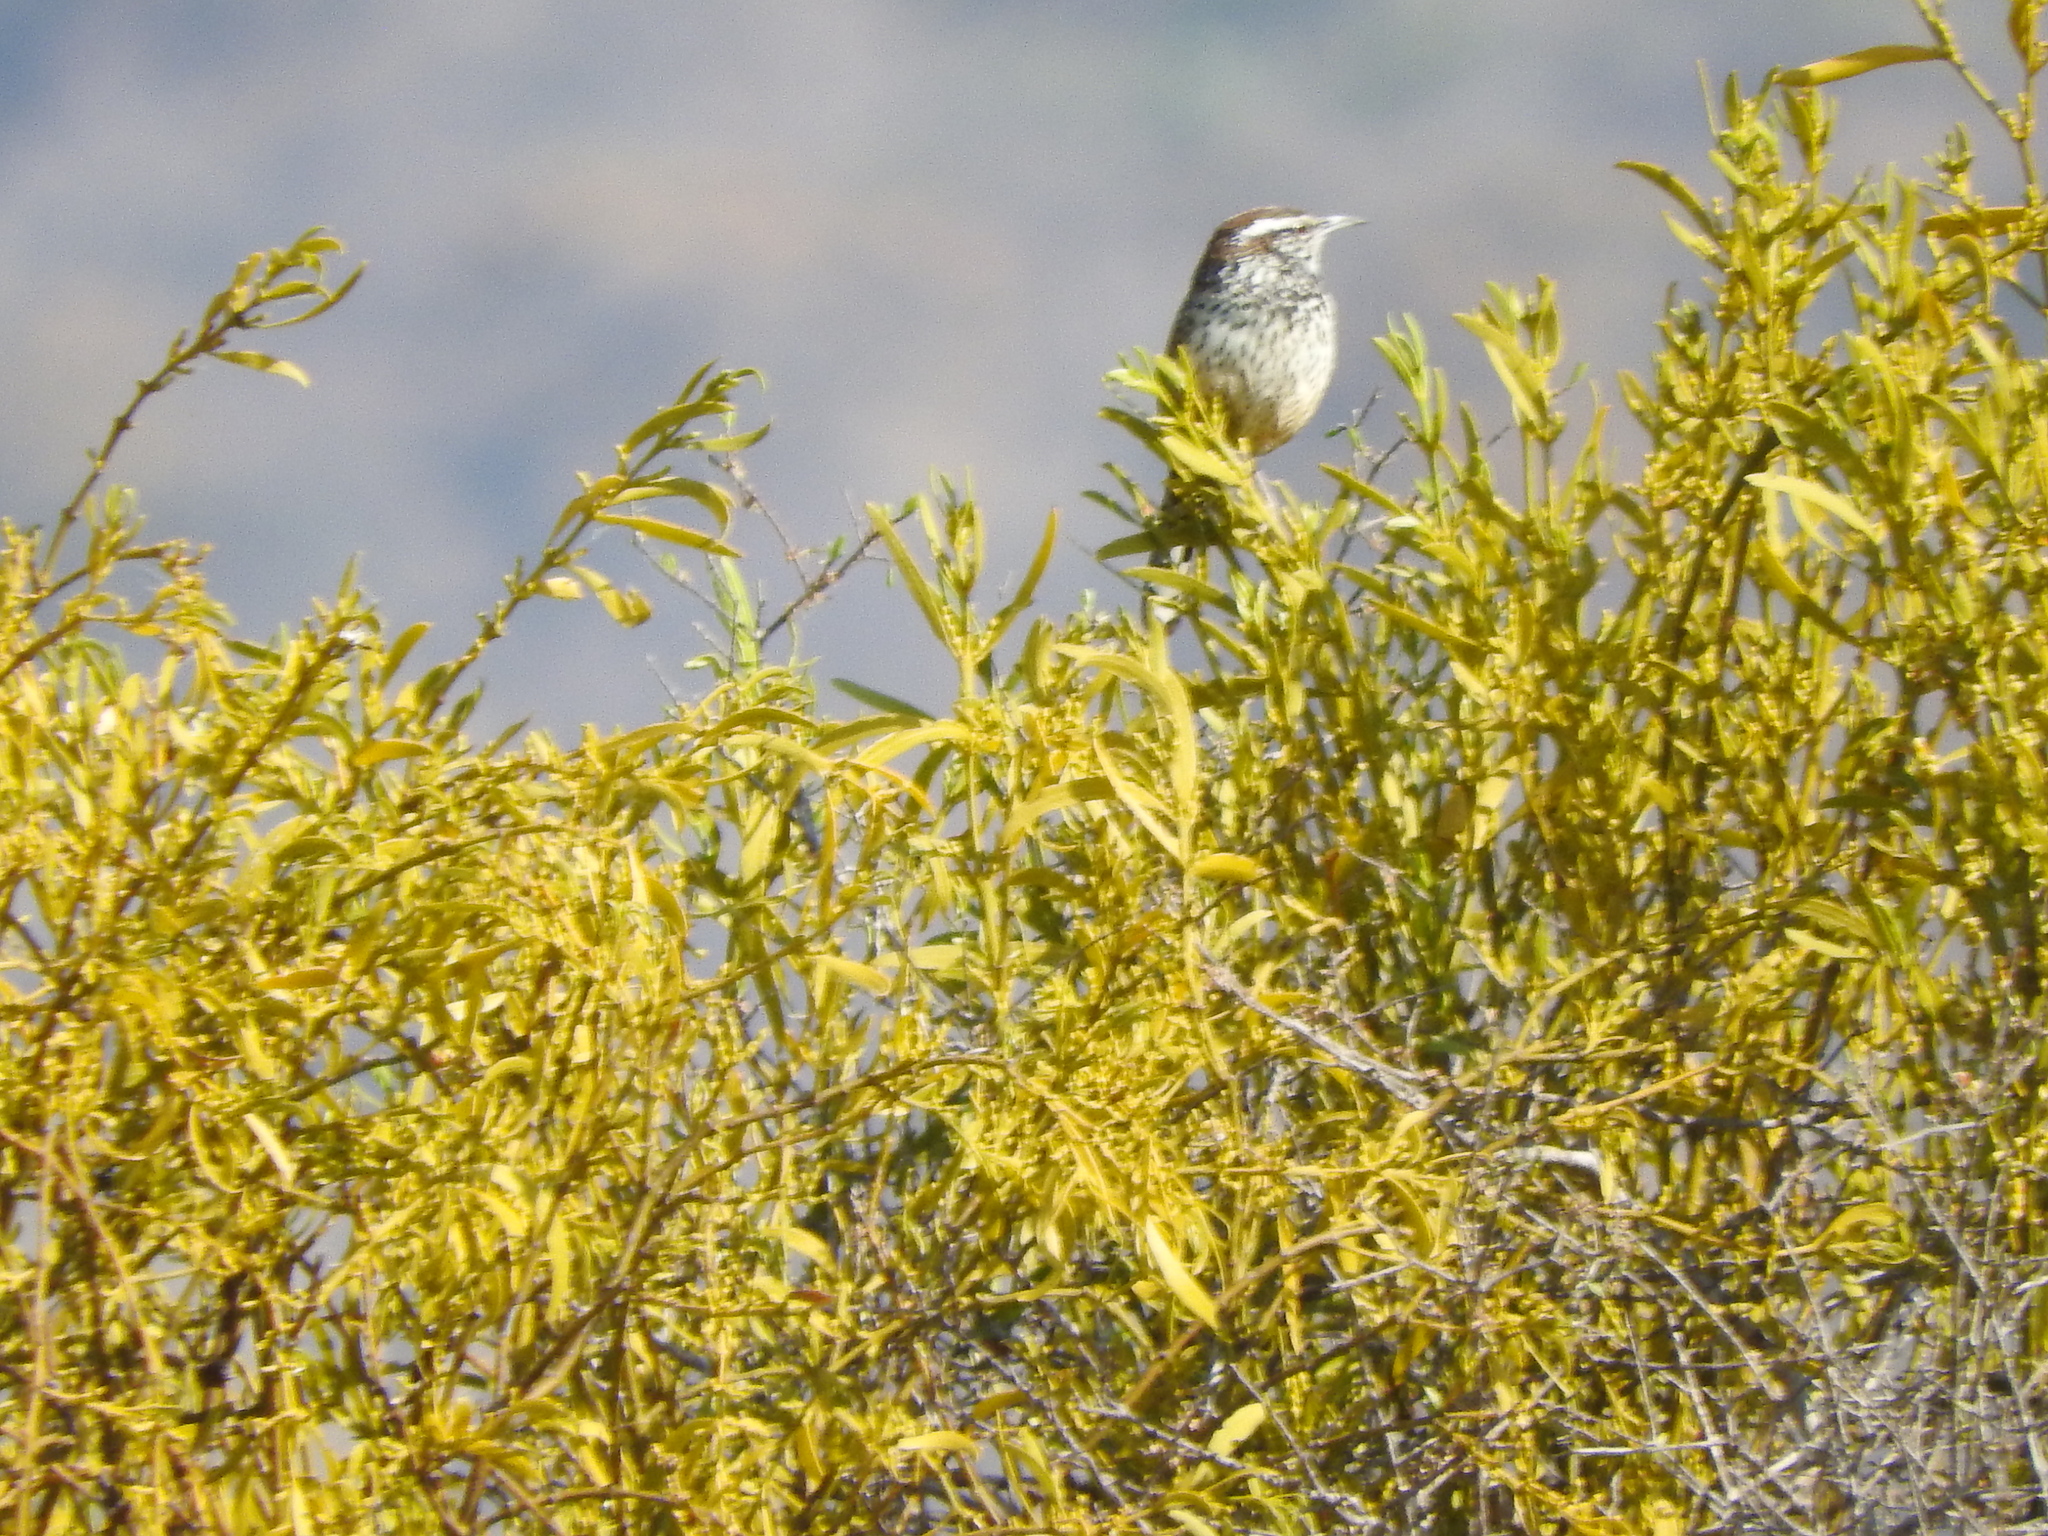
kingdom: Animalia
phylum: Chordata
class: Aves
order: Passeriformes
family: Troglodytidae
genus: Campylorhynchus
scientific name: Campylorhynchus brunneicapillus
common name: Cactus wren
